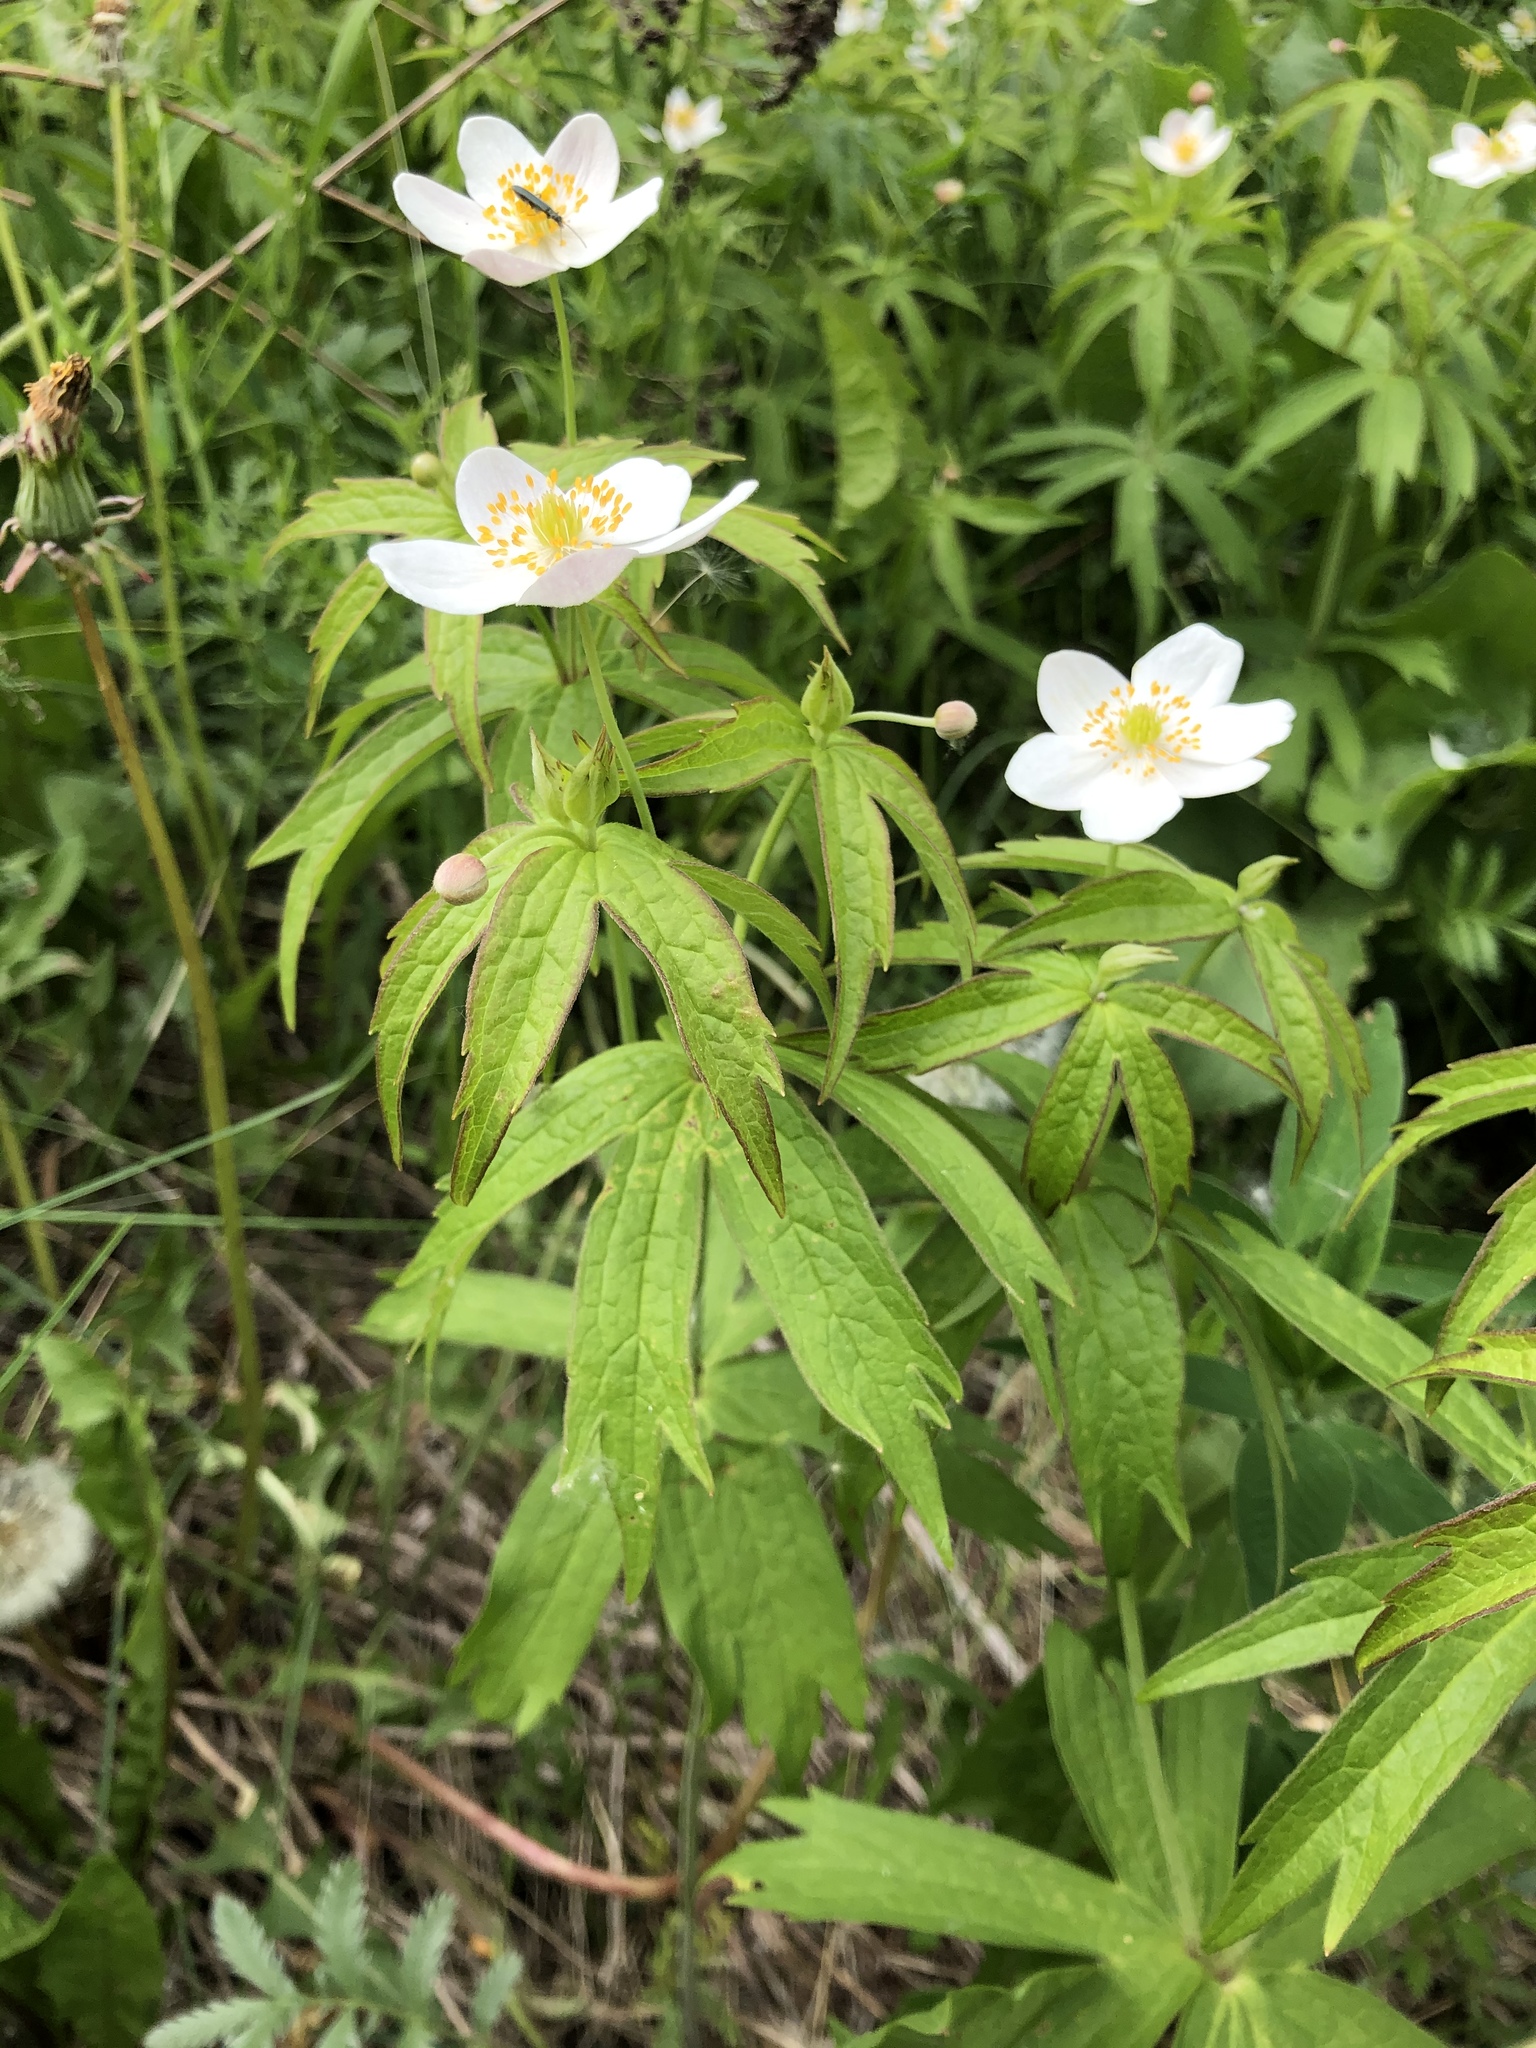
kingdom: Plantae
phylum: Tracheophyta
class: Magnoliopsida
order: Ranunculales
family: Ranunculaceae
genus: Anemonastrum
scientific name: Anemonastrum dichotomum
